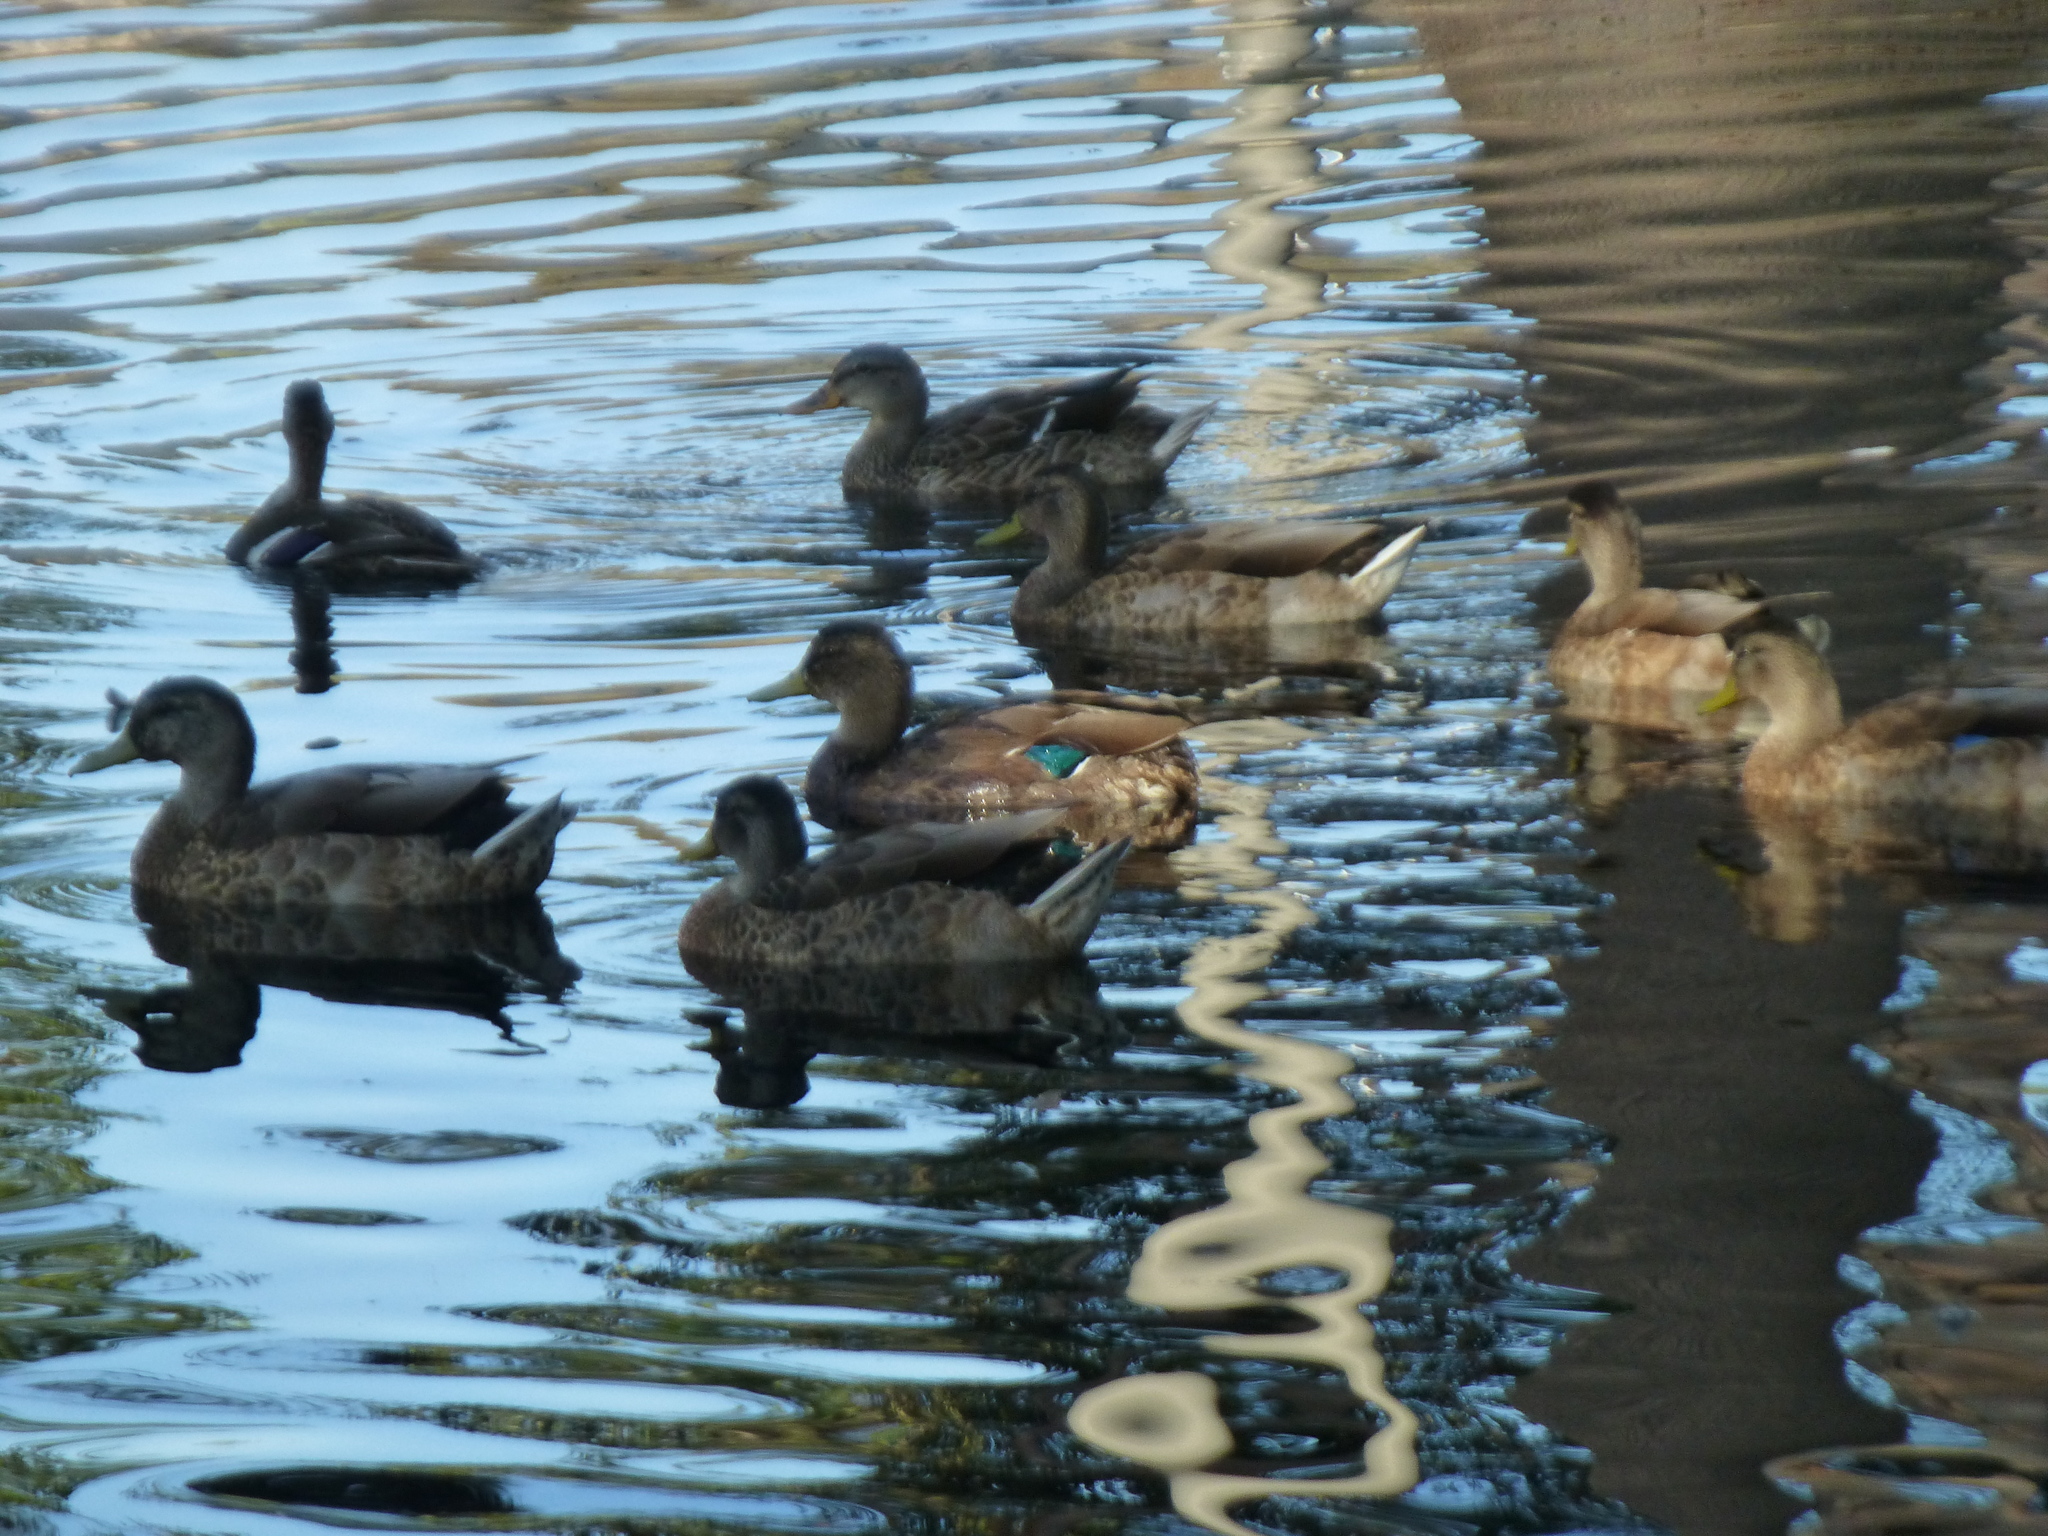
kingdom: Animalia
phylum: Chordata
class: Aves
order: Anseriformes
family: Anatidae
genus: Anas
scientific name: Anas platyrhynchos
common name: Mallard
